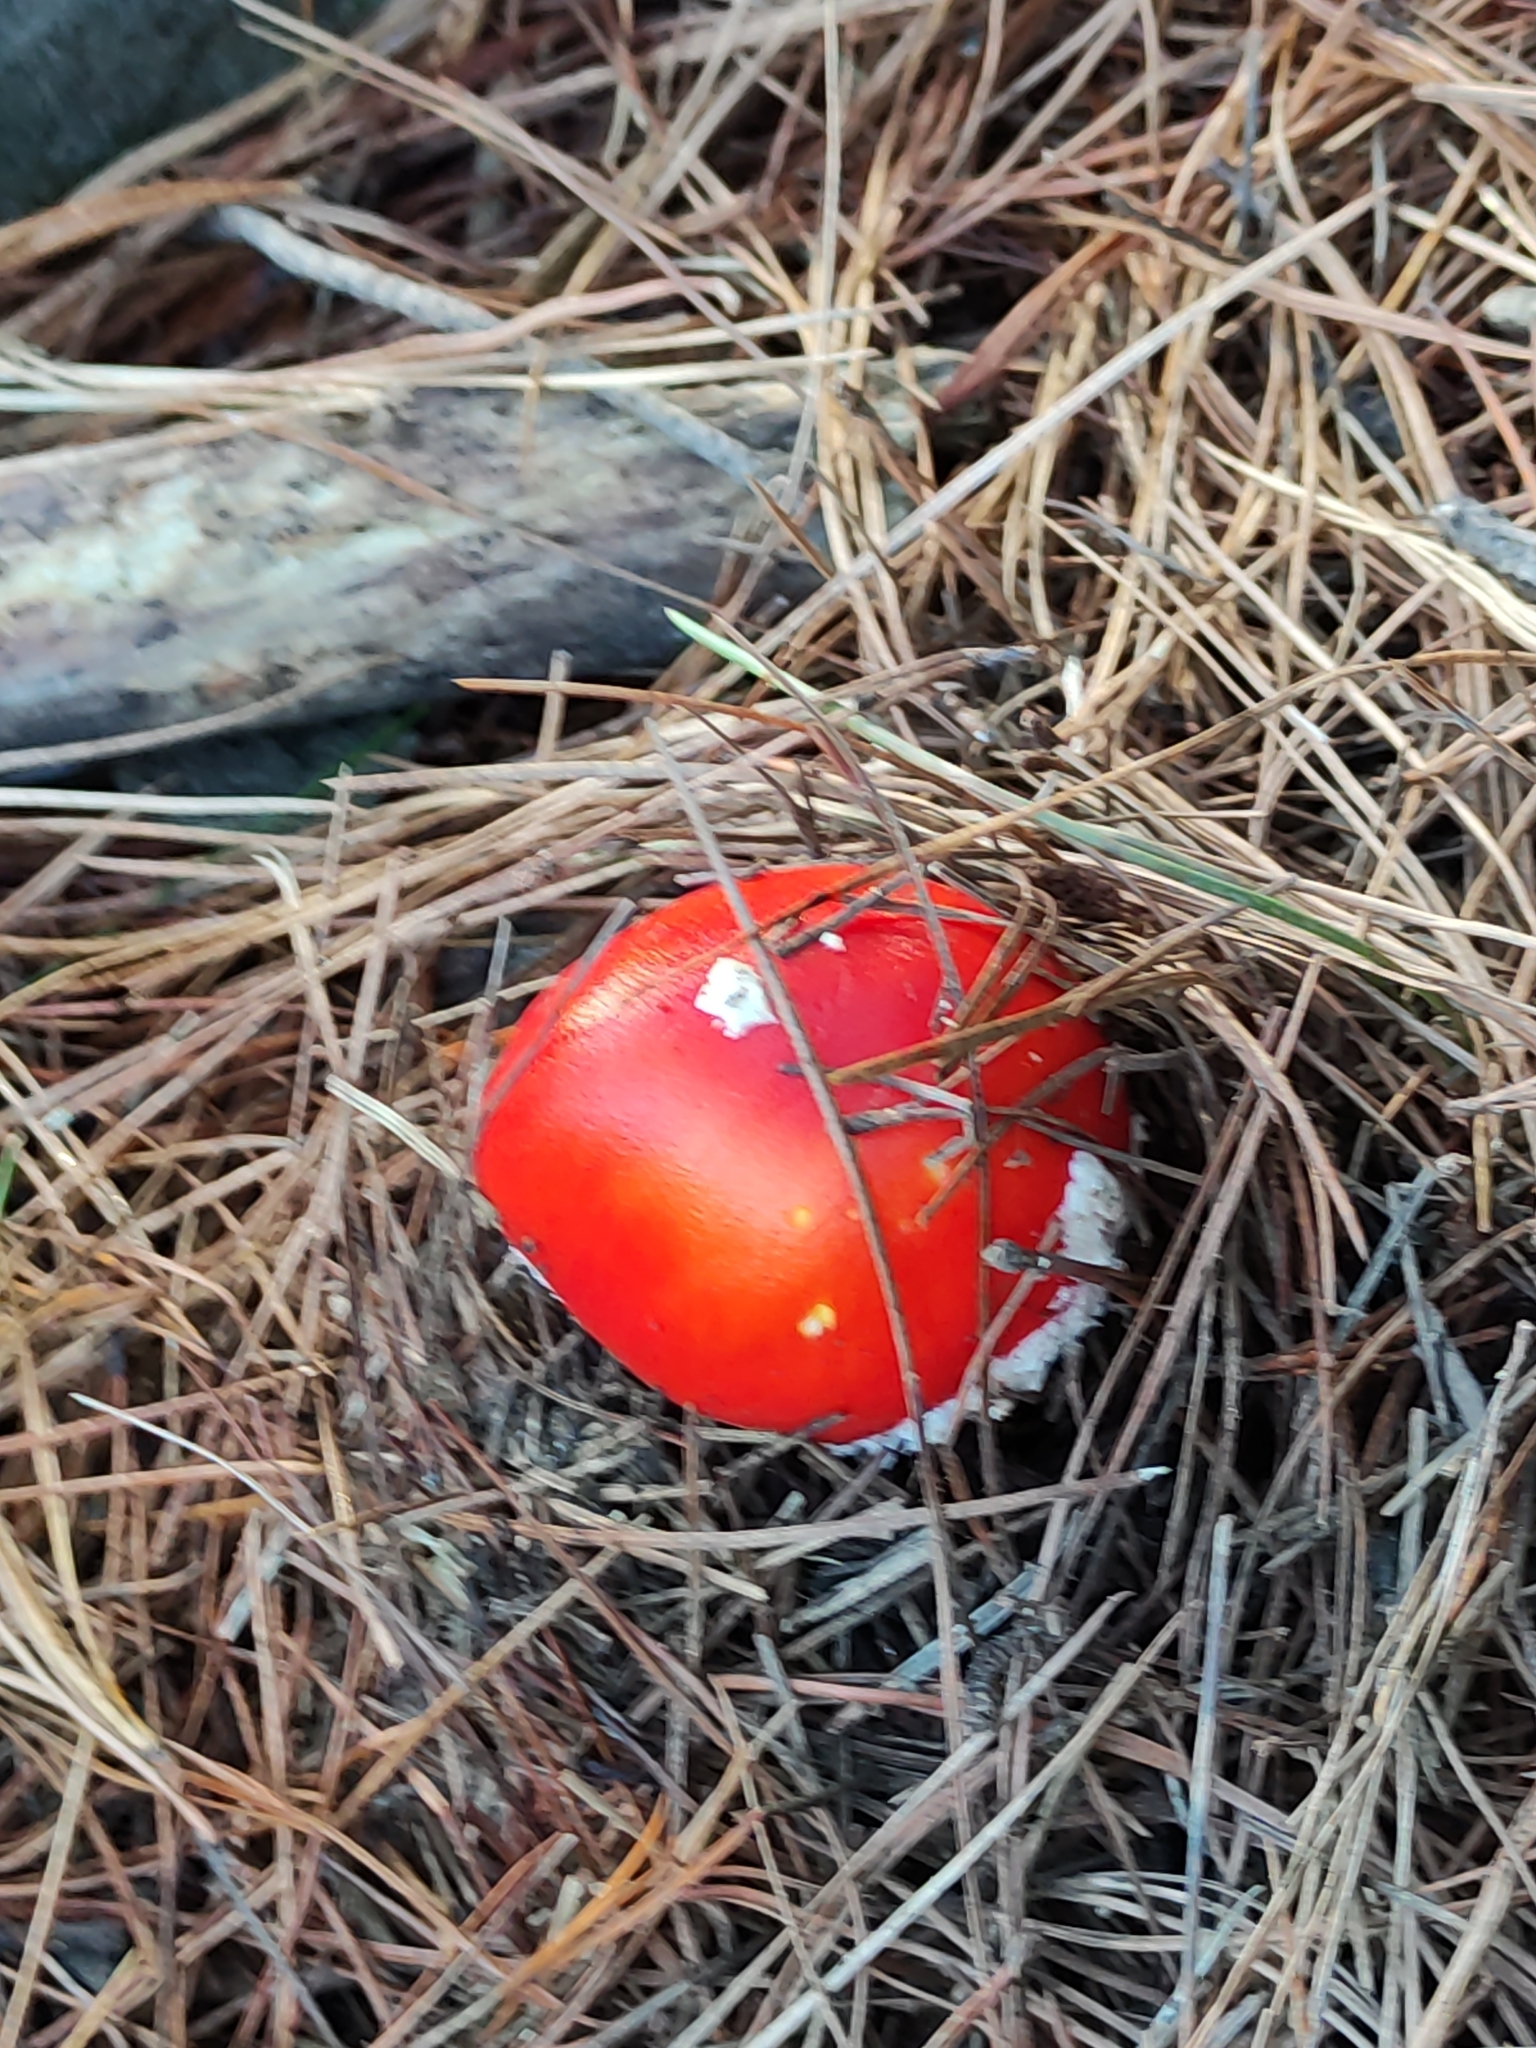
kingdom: Fungi
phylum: Basidiomycota
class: Agaricomycetes
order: Agaricales
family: Amanitaceae
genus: Amanita
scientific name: Amanita muscaria
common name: Fly agaric
